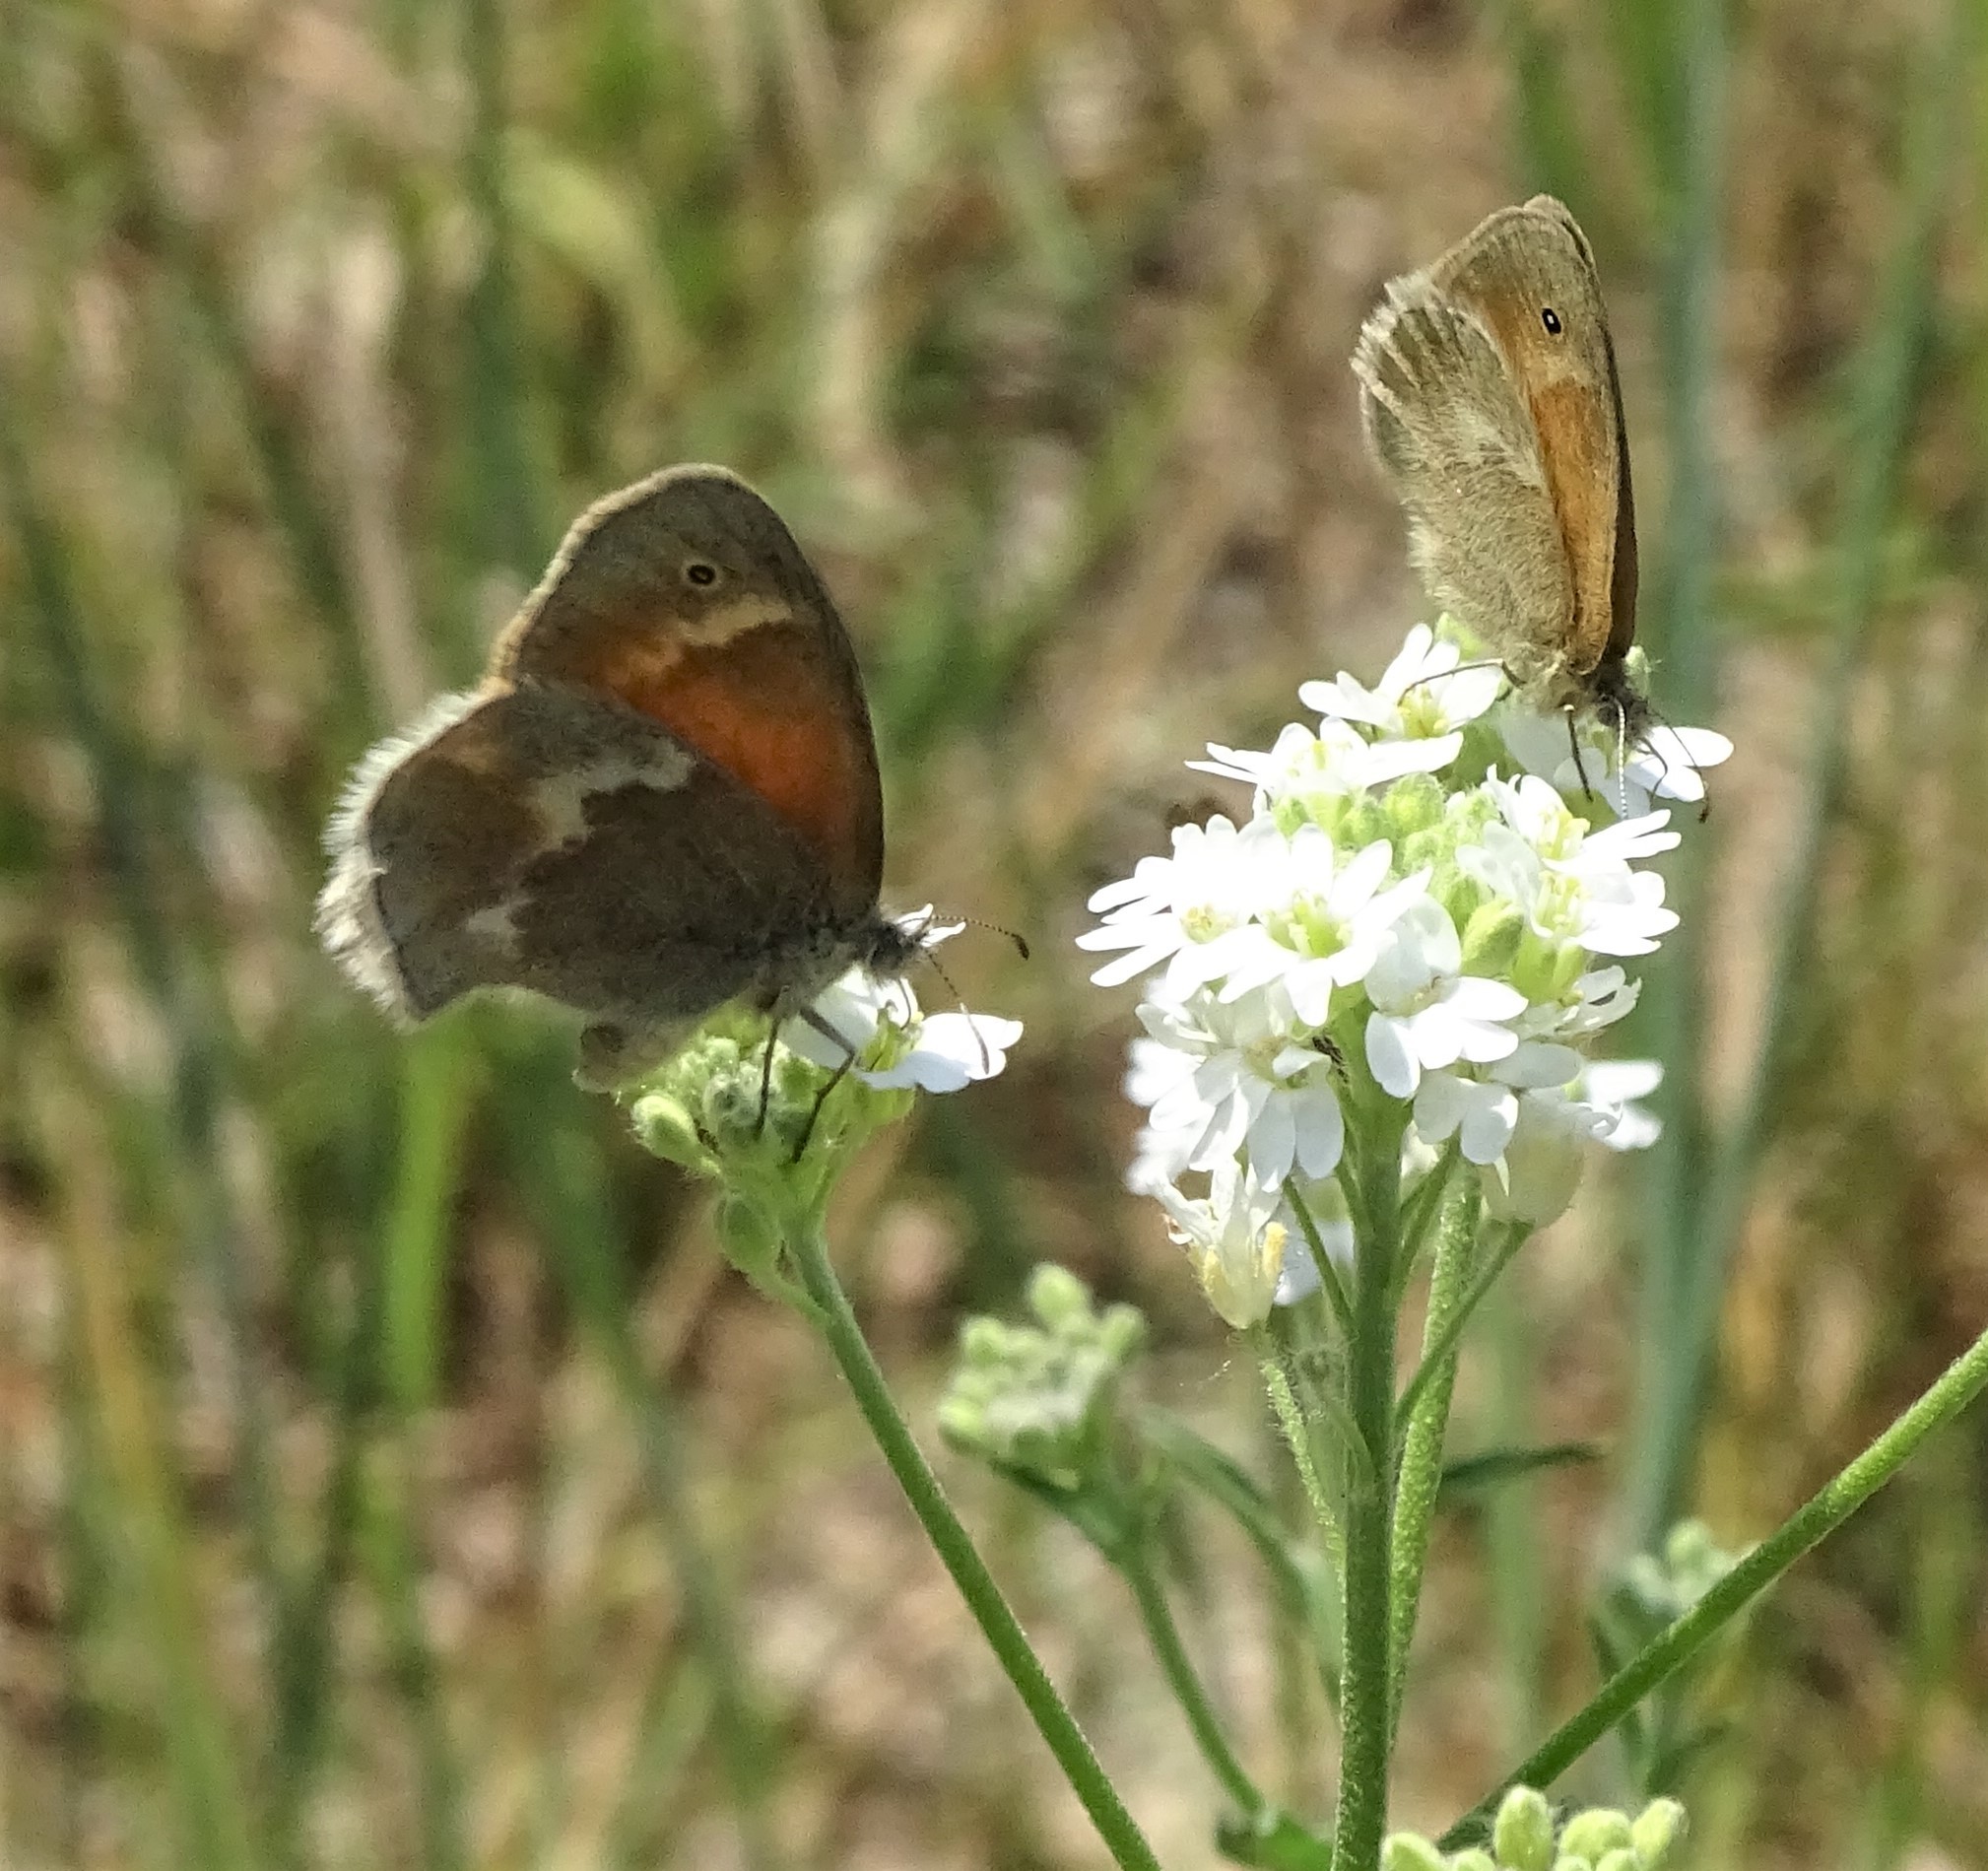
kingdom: Animalia
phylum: Arthropoda
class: Insecta
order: Lepidoptera
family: Nymphalidae
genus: Coenonympha
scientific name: Coenonympha california
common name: Common ringlet
